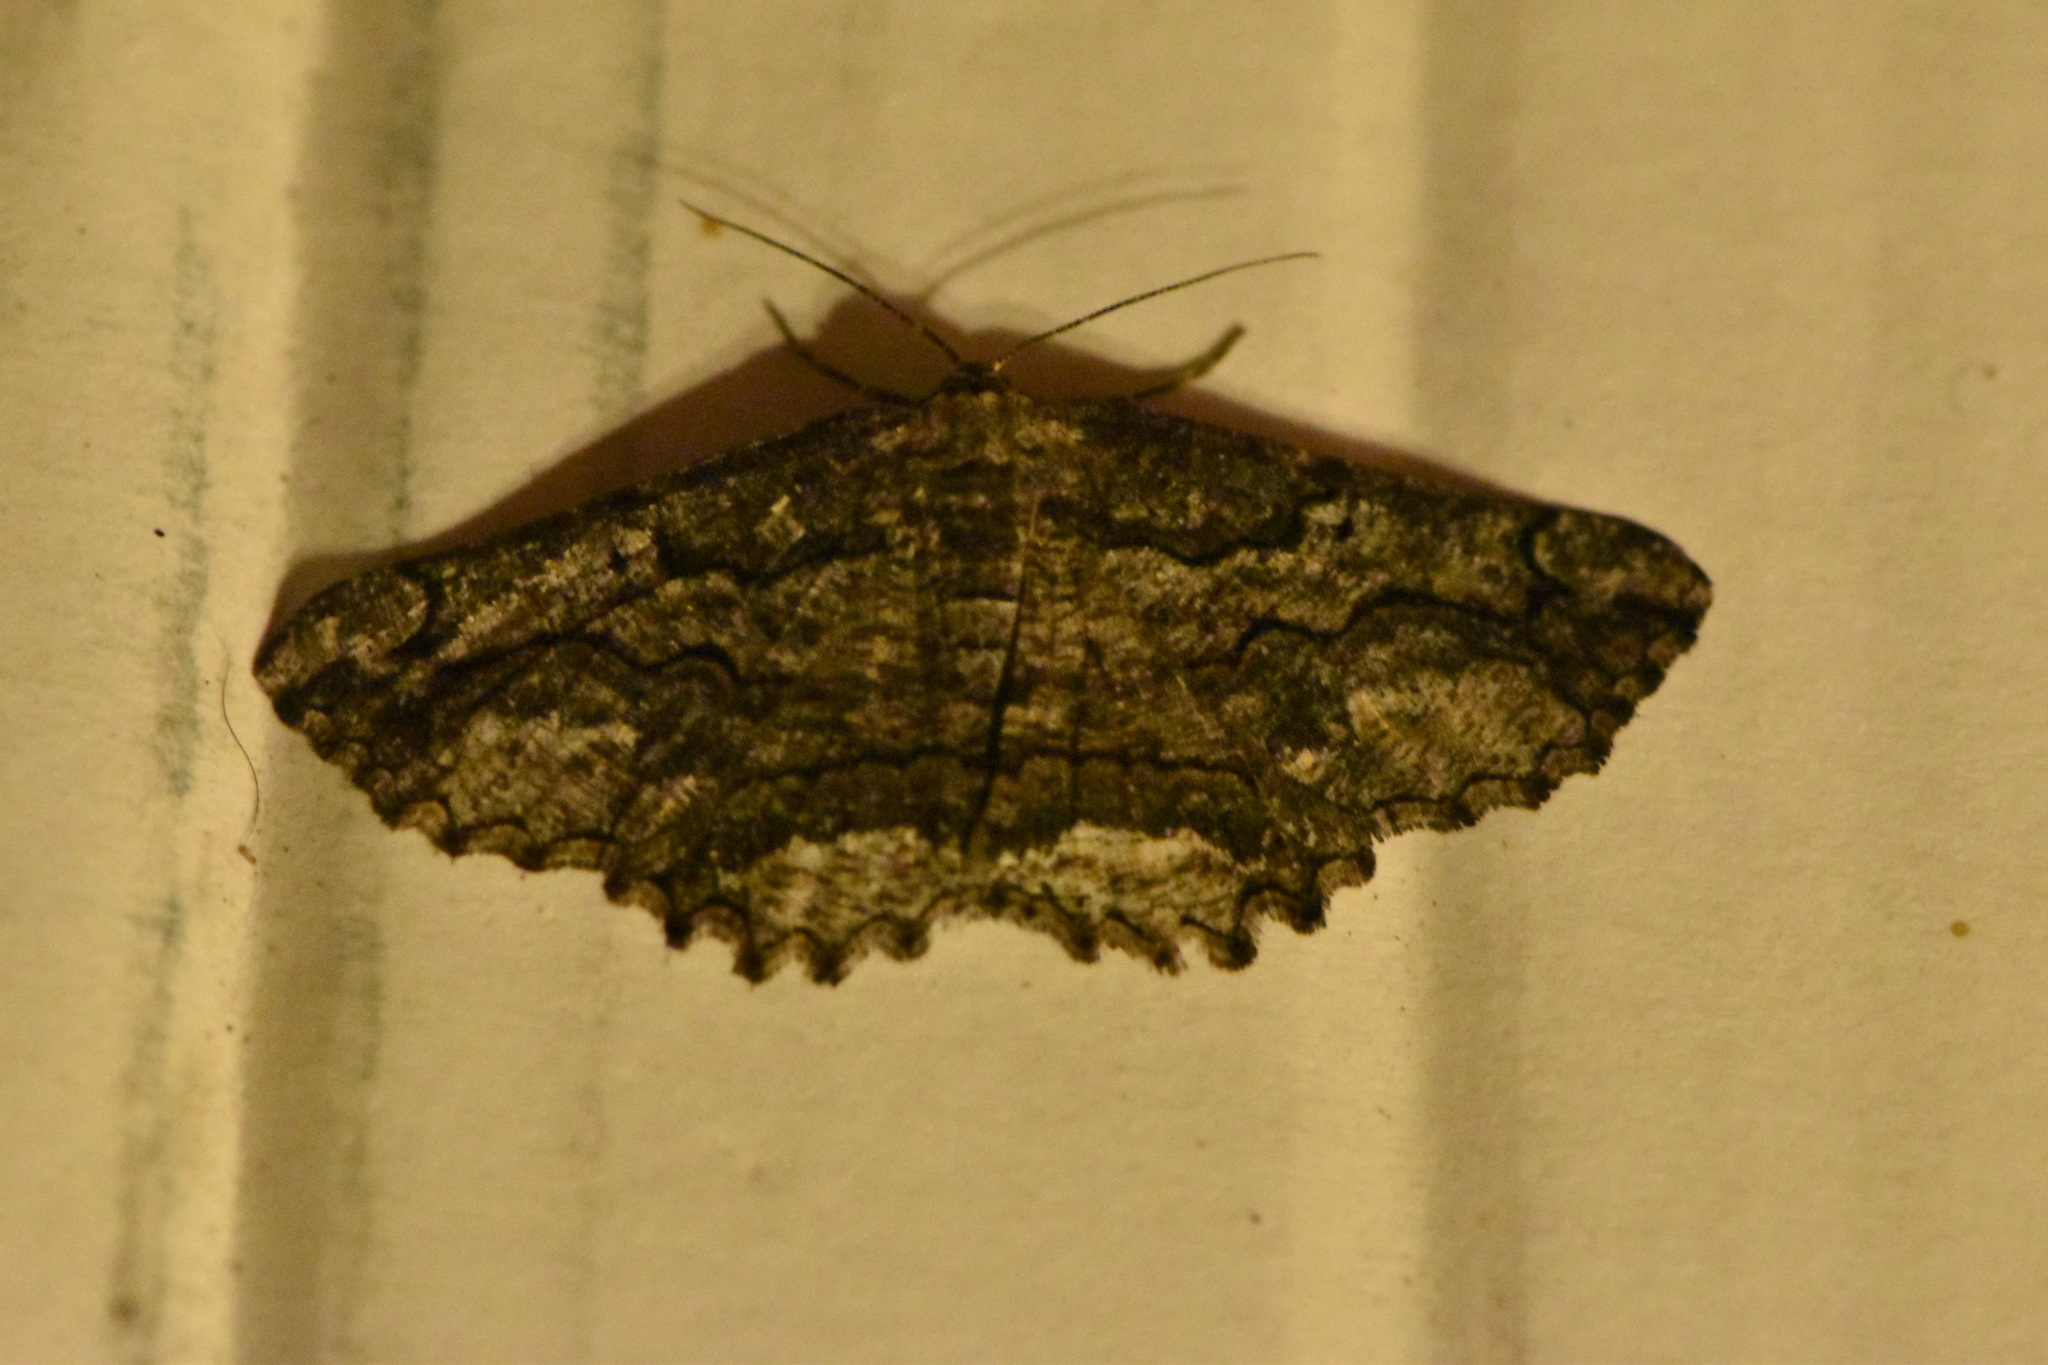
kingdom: Animalia
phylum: Arthropoda
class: Insecta
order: Lepidoptera
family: Geometridae
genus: Menophra
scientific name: Menophra japygiaria
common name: Brassy waved umber
